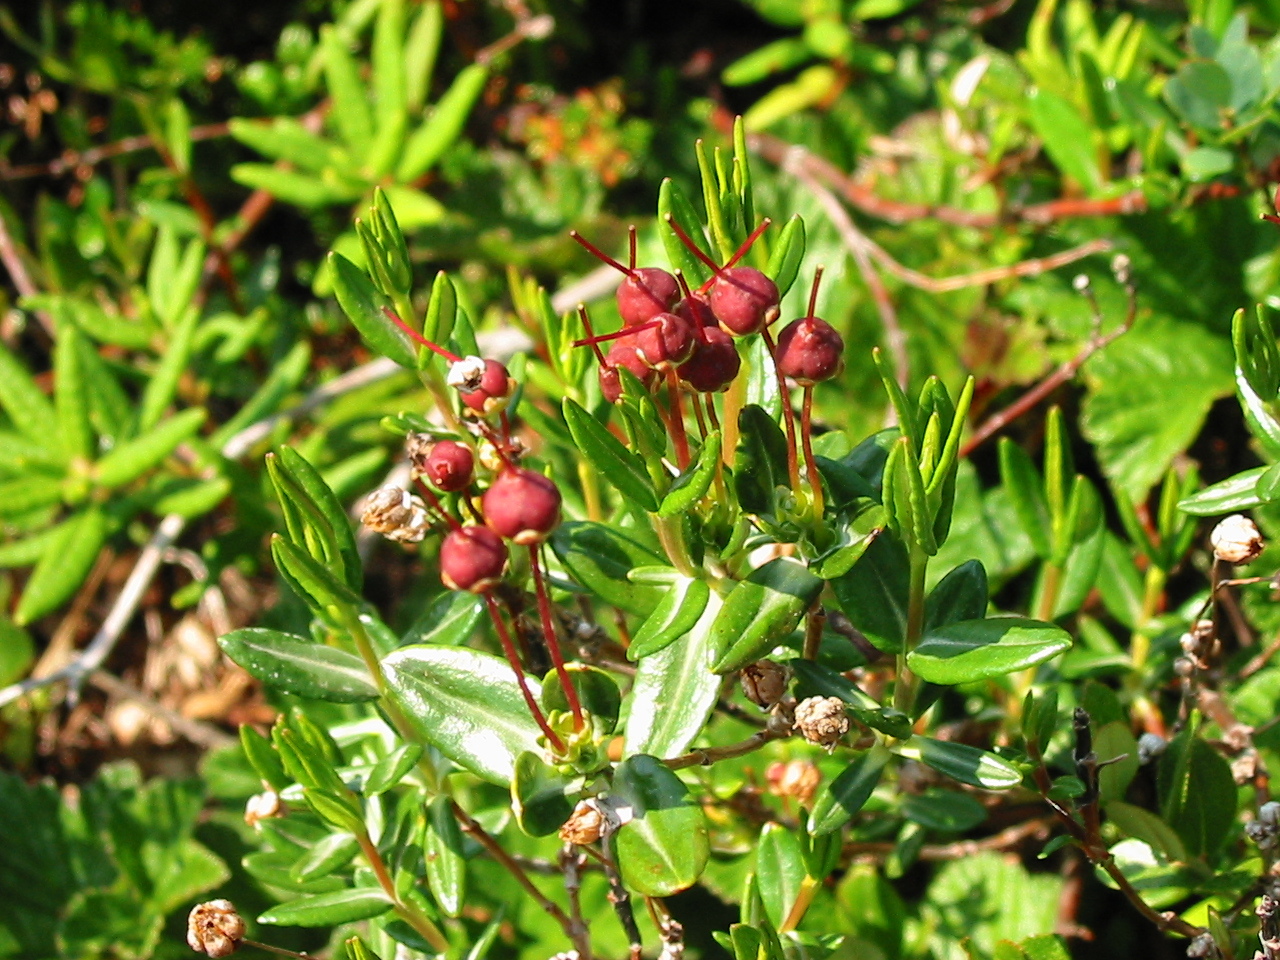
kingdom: Plantae
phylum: Tracheophyta
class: Magnoliopsida
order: Ericales
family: Ericaceae
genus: Kalmia
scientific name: Kalmia polifolia
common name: Bog-laurel
